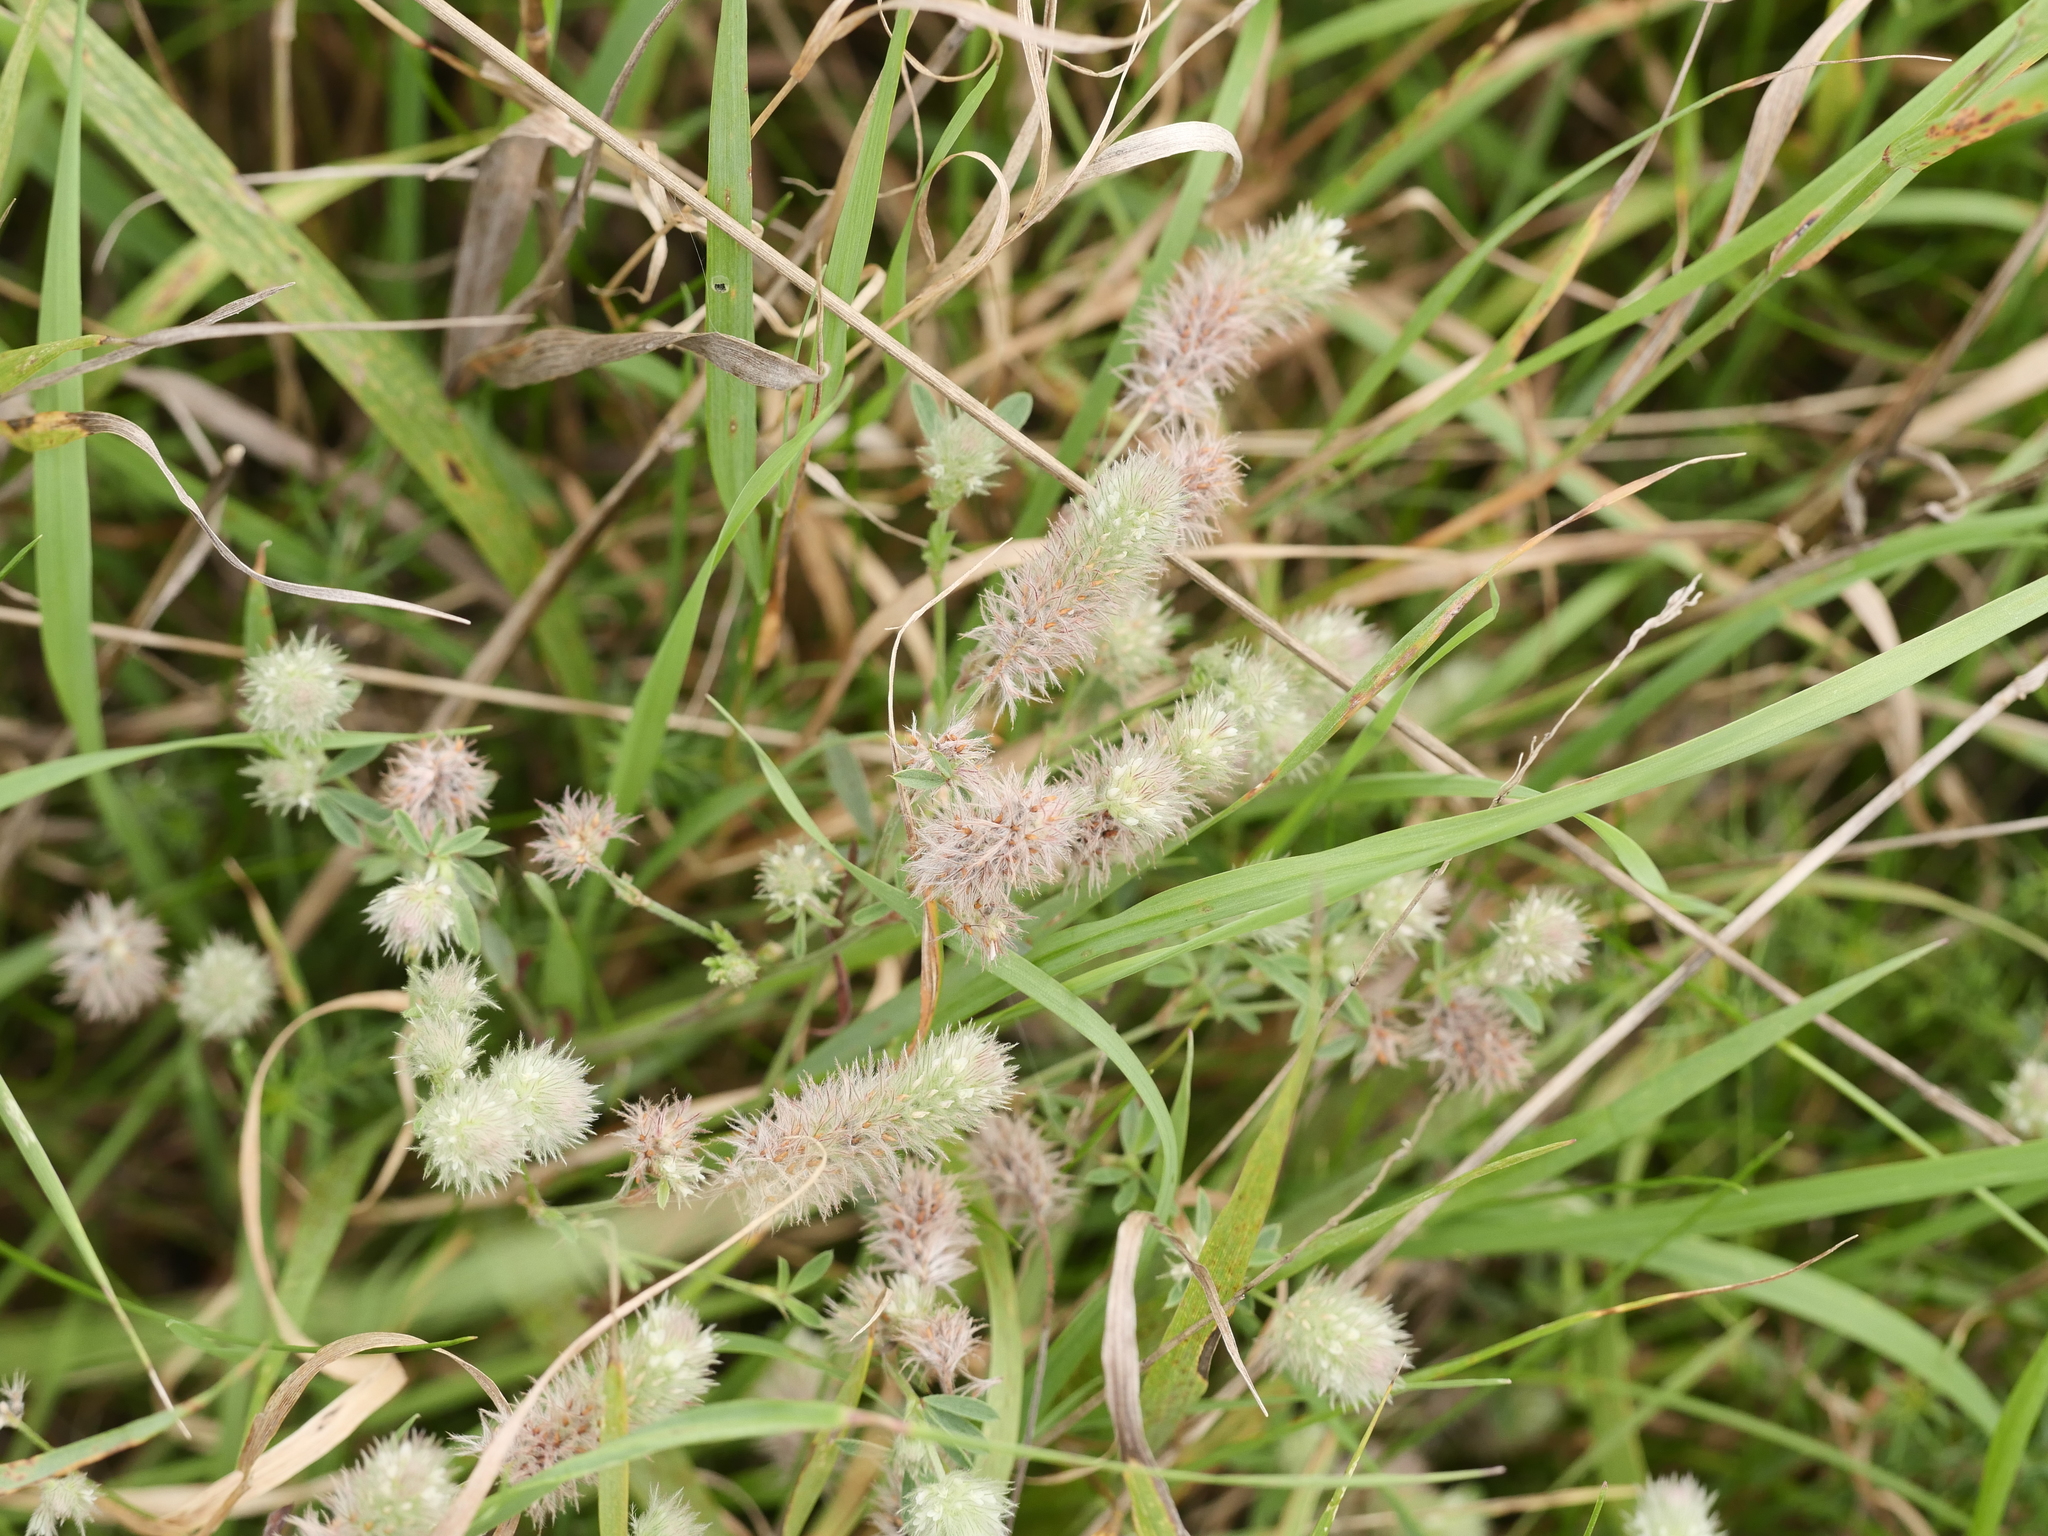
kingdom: Plantae
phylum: Tracheophyta
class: Magnoliopsida
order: Fabales
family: Fabaceae
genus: Trifolium
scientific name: Trifolium arvense
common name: Hare's-foot clover
